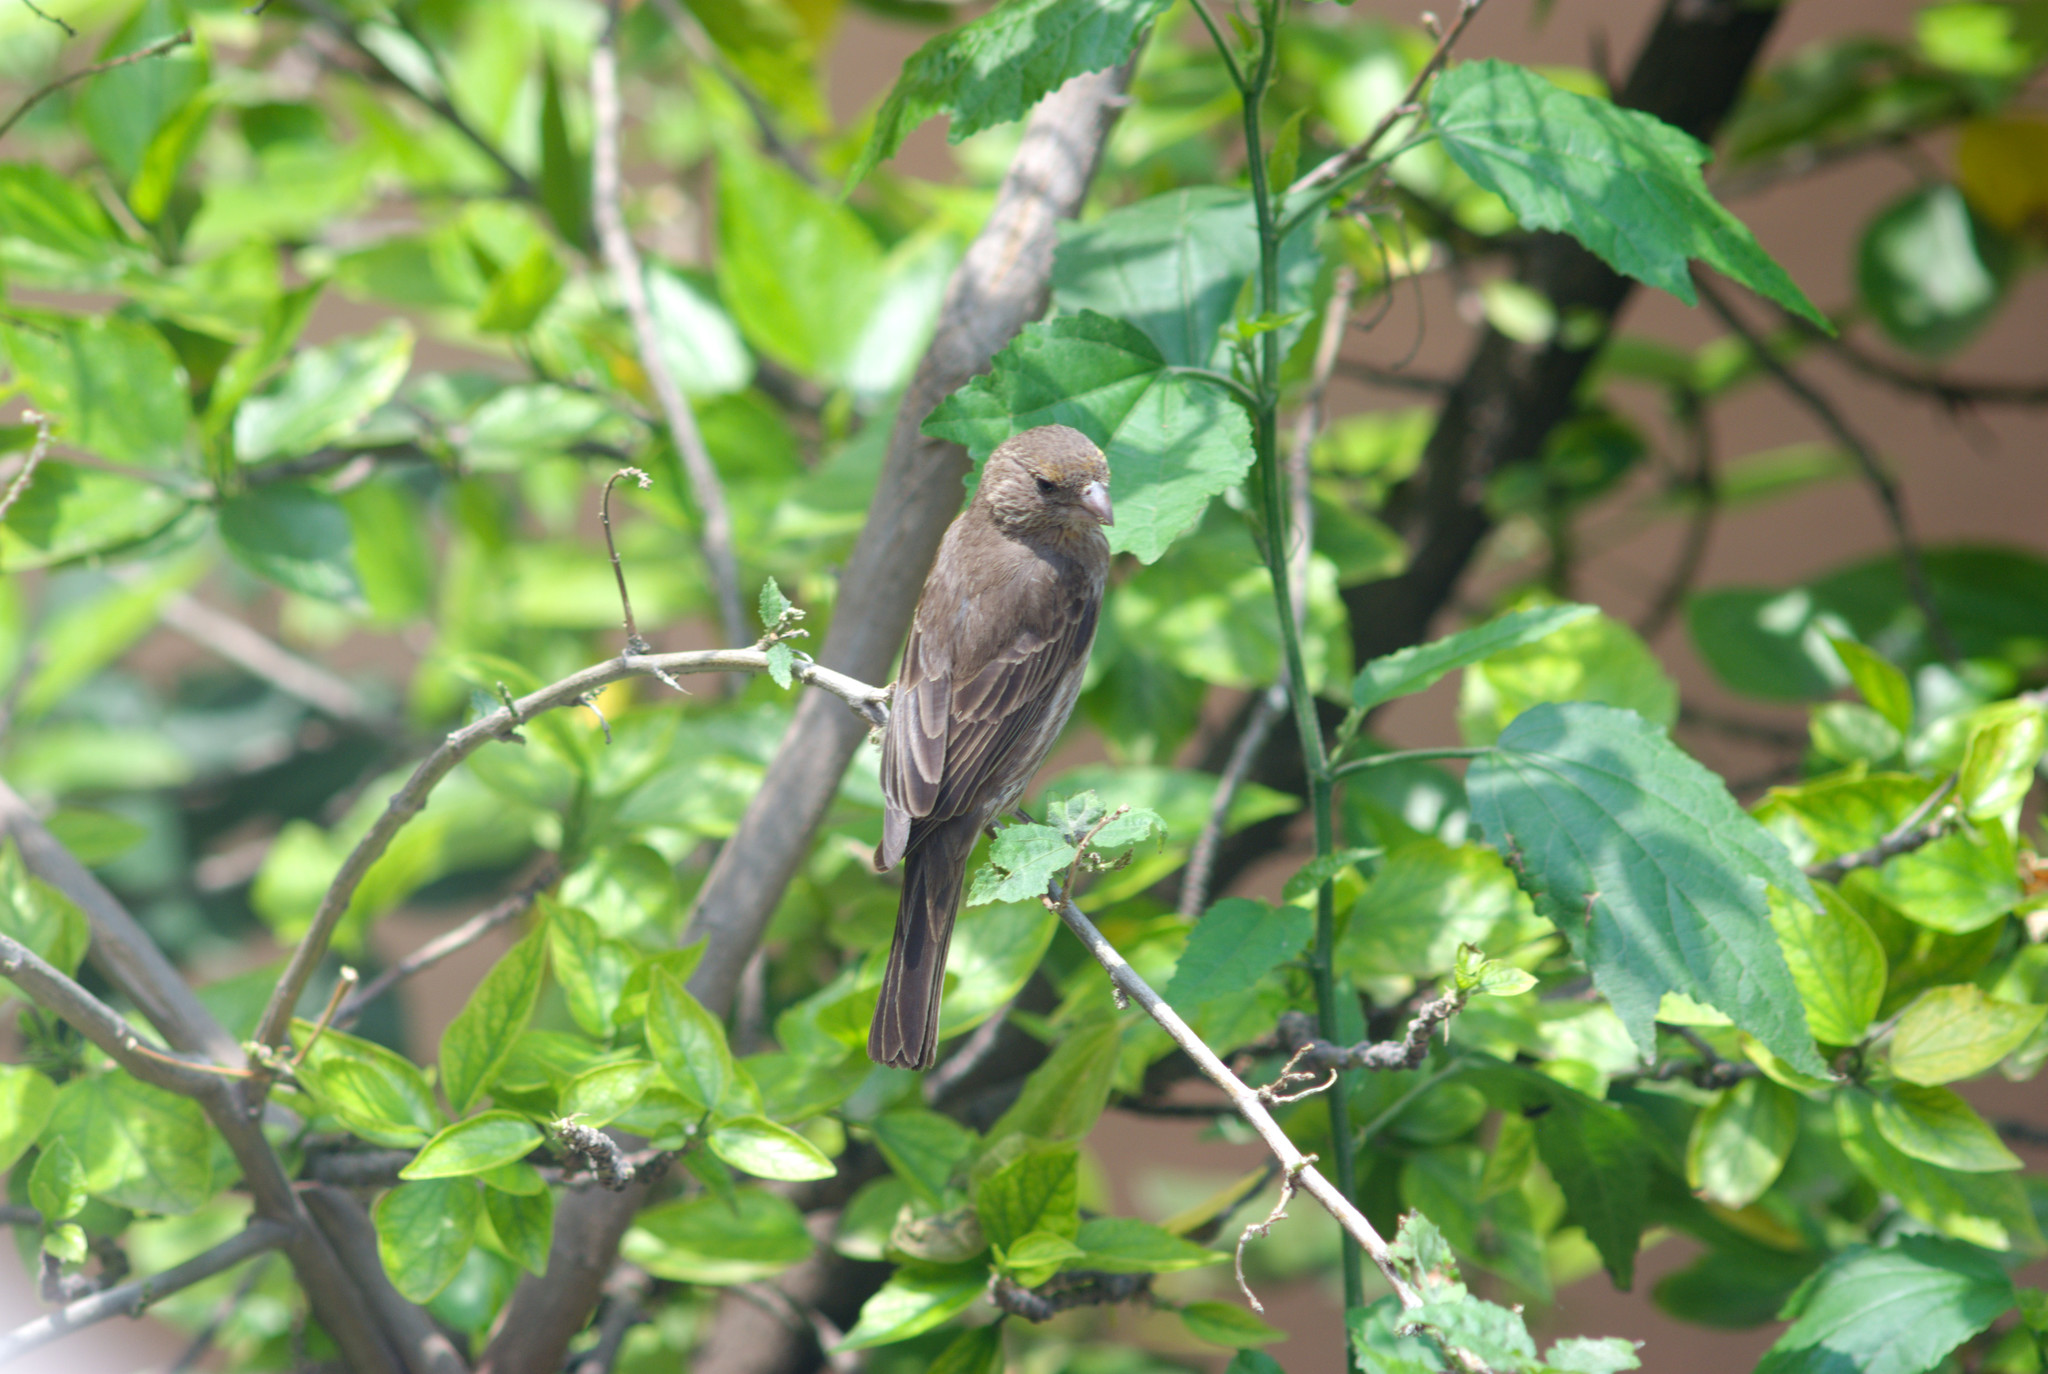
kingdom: Animalia
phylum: Chordata
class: Aves
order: Passeriformes
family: Fringillidae
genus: Haemorhous
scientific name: Haemorhous mexicanus
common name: House finch
